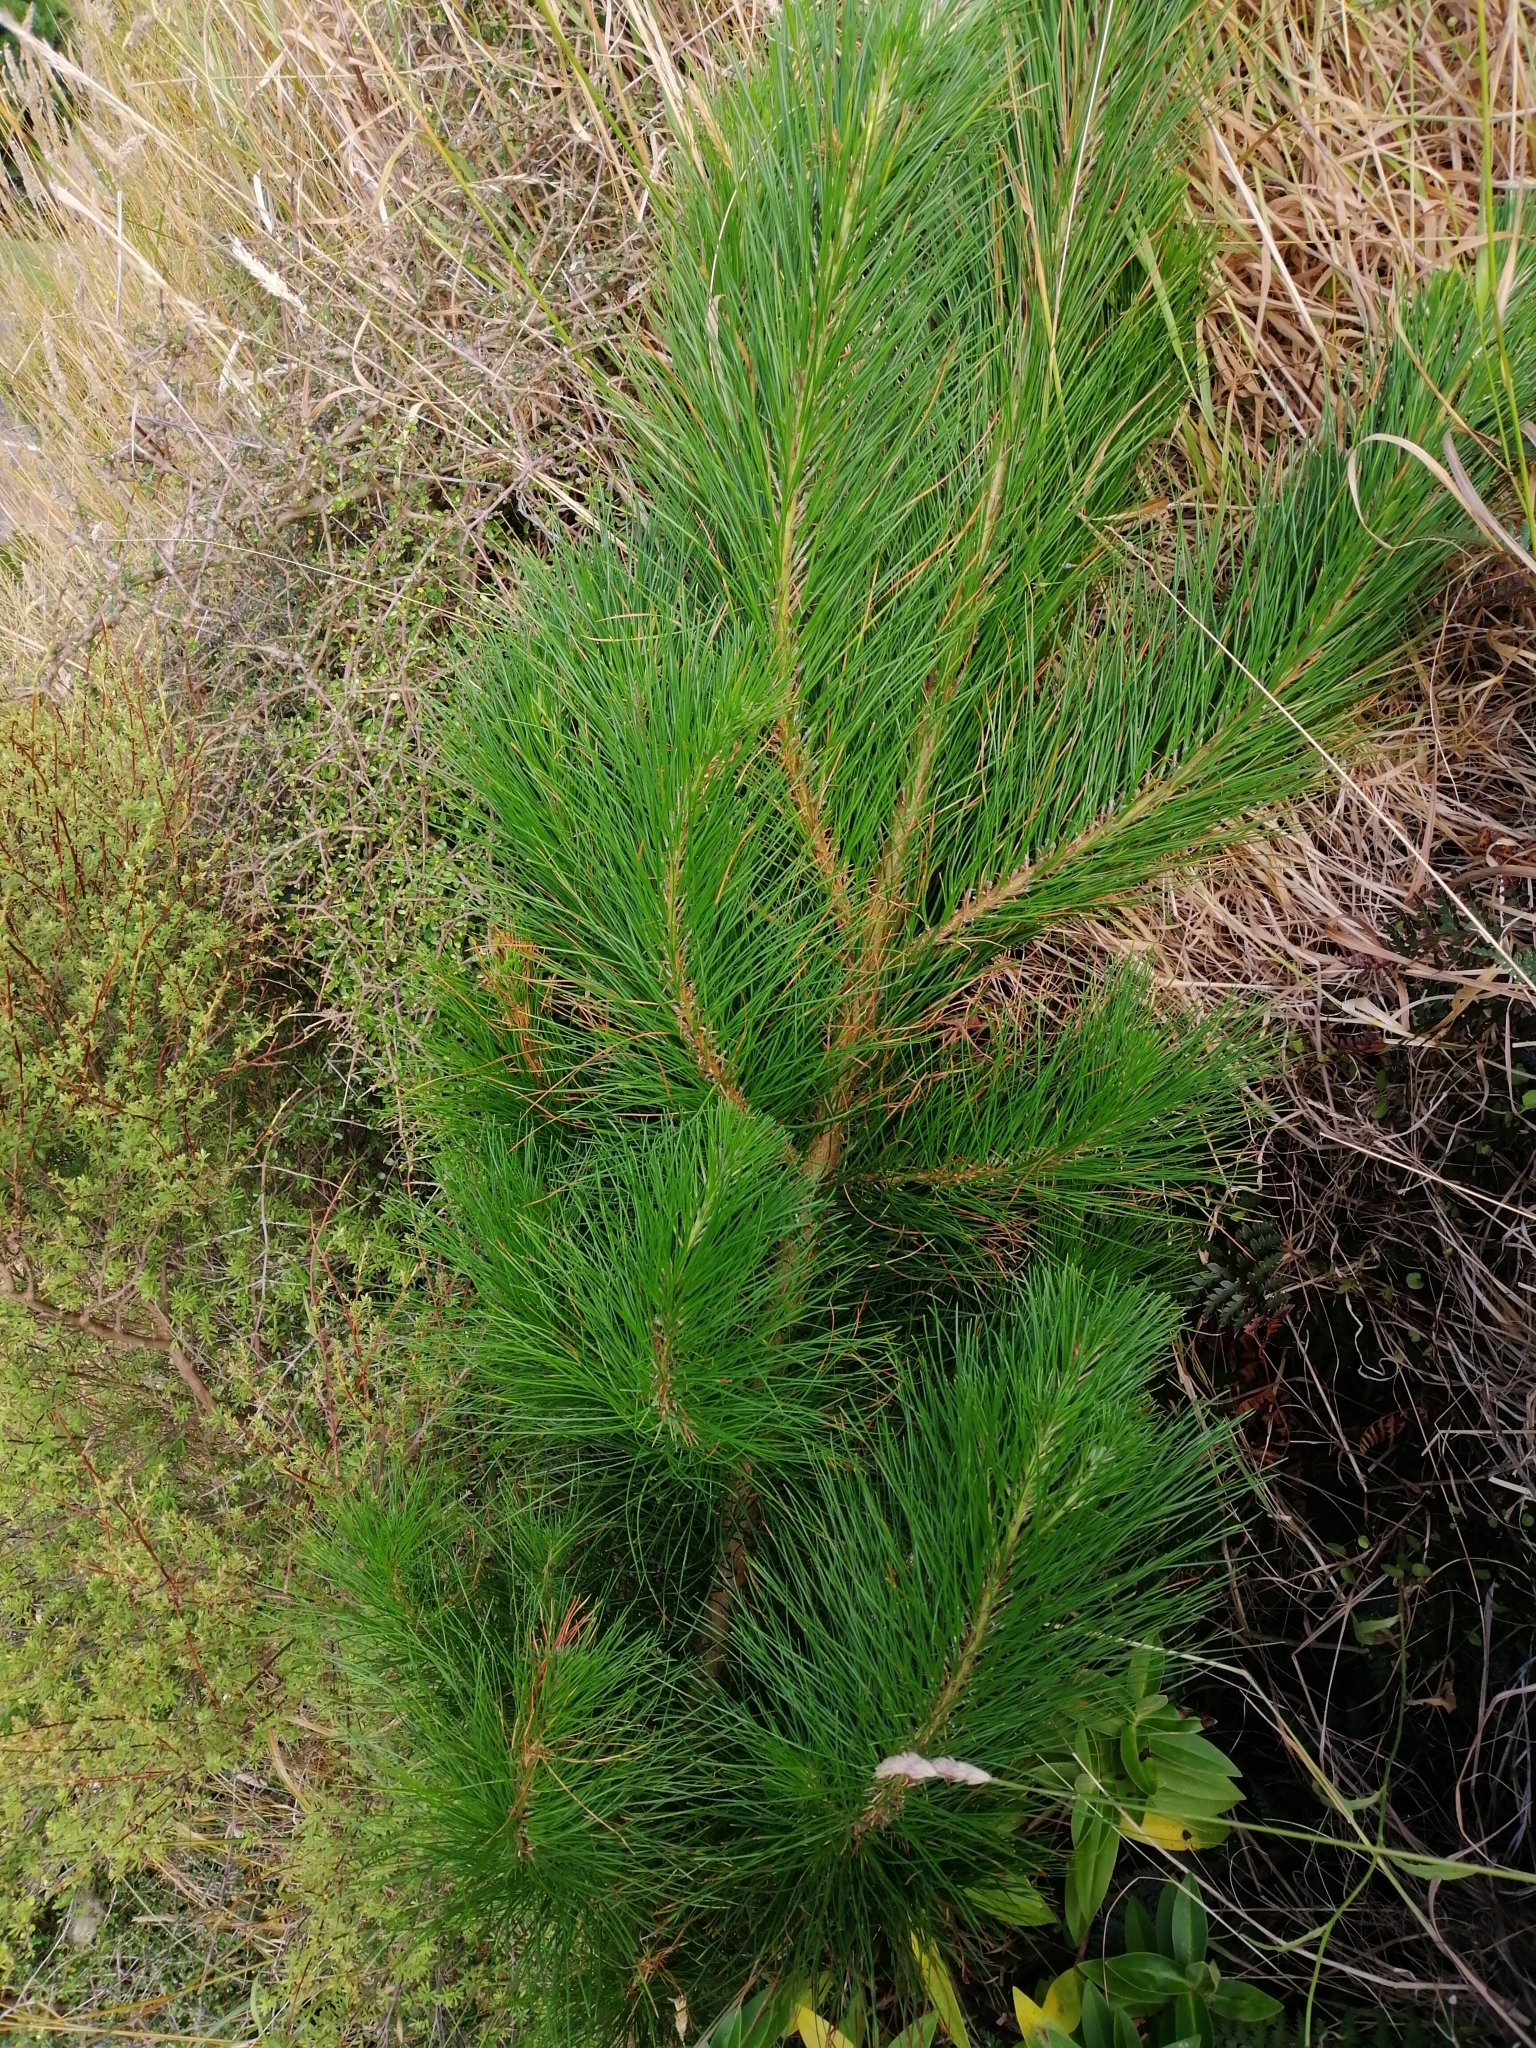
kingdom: Plantae
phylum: Tracheophyta
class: Pinopsida
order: Pinales
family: Pinaceae
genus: Pinus
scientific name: Pinus radiata
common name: Monterey pine
